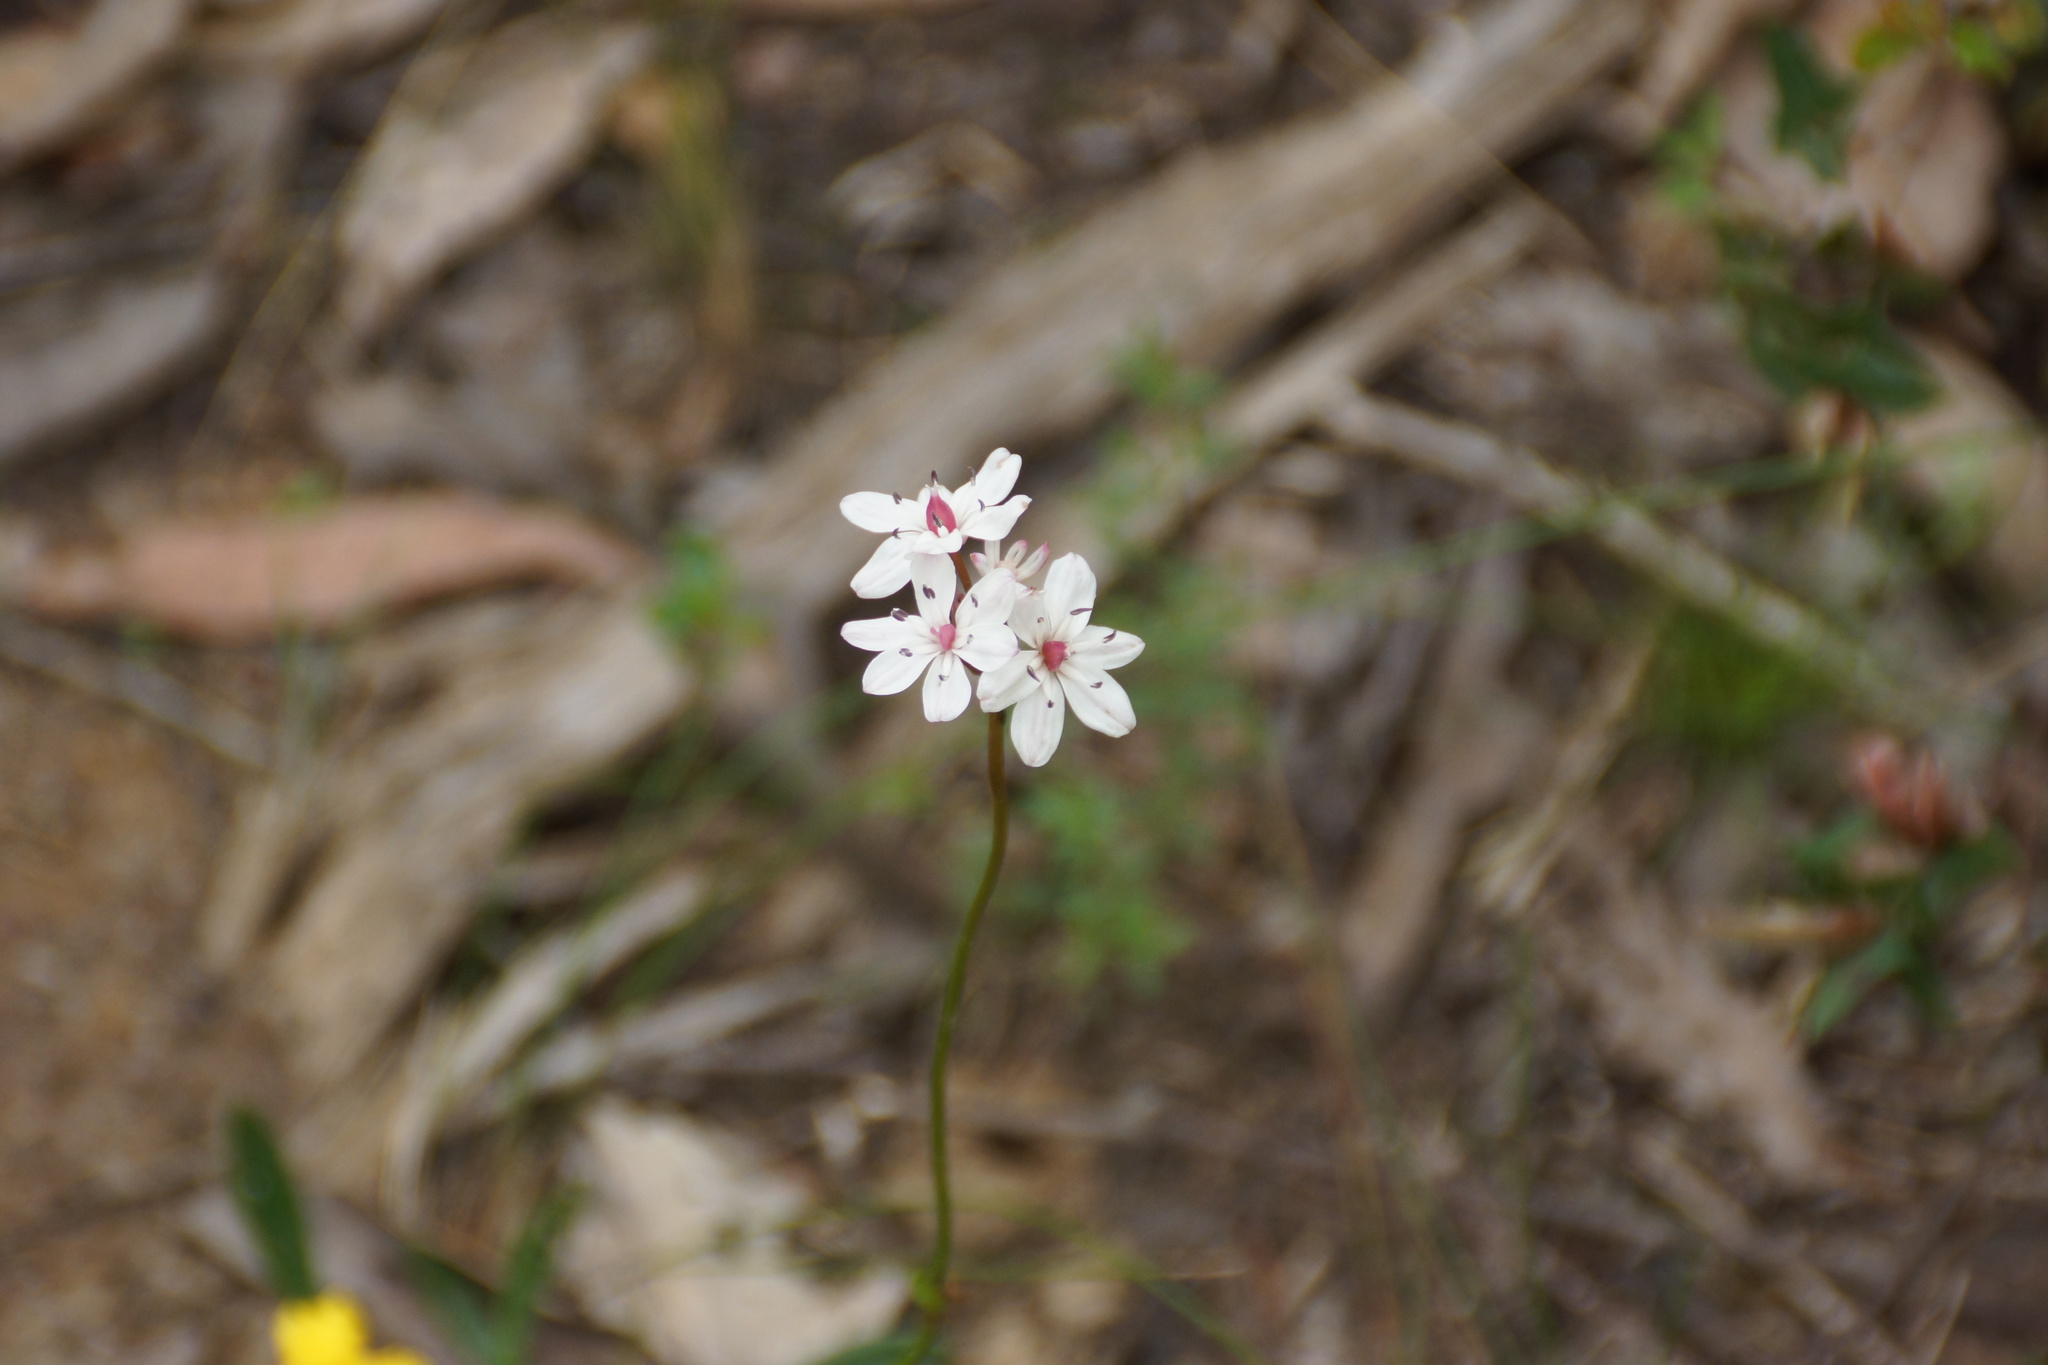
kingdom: Plantae
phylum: Tracheophyta
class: Liliopsida
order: Liliales
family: Colchicaceae
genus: Burchardia
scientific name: Burchardia umbellata
